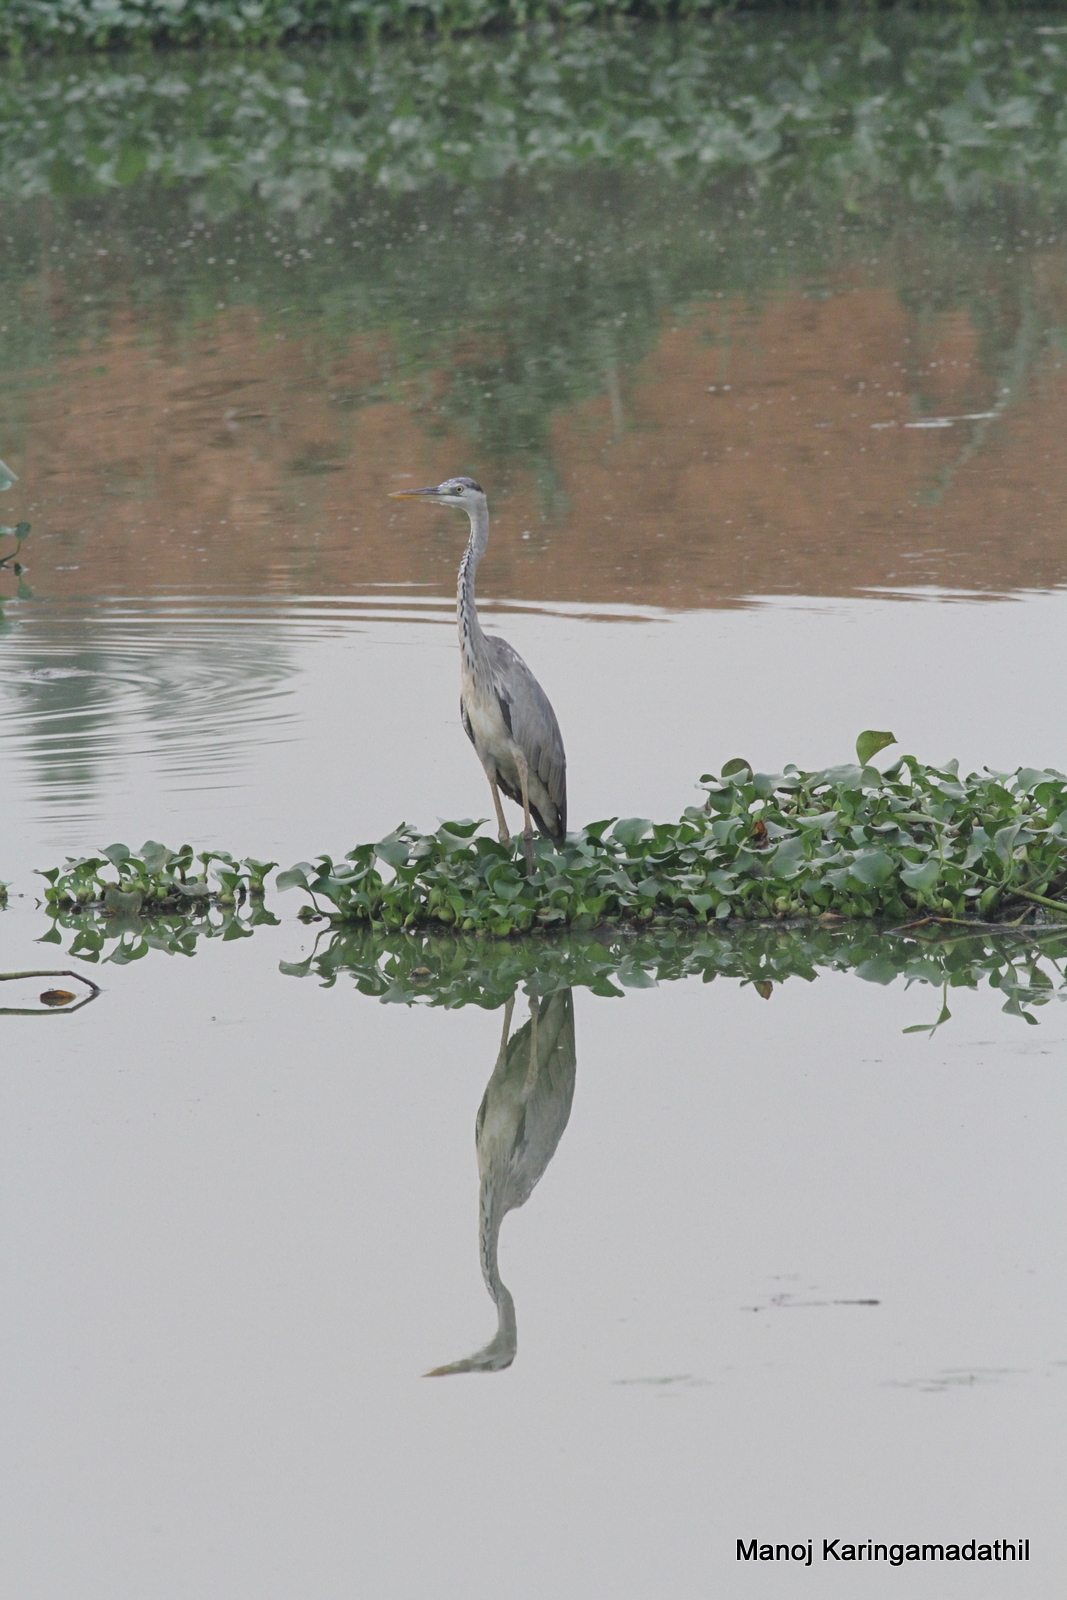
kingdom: Animalia
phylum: Chordata
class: Aves
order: Pelecaniformes
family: Ardeidae
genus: Ardea
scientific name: Ardea cinerea
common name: Grey heron
